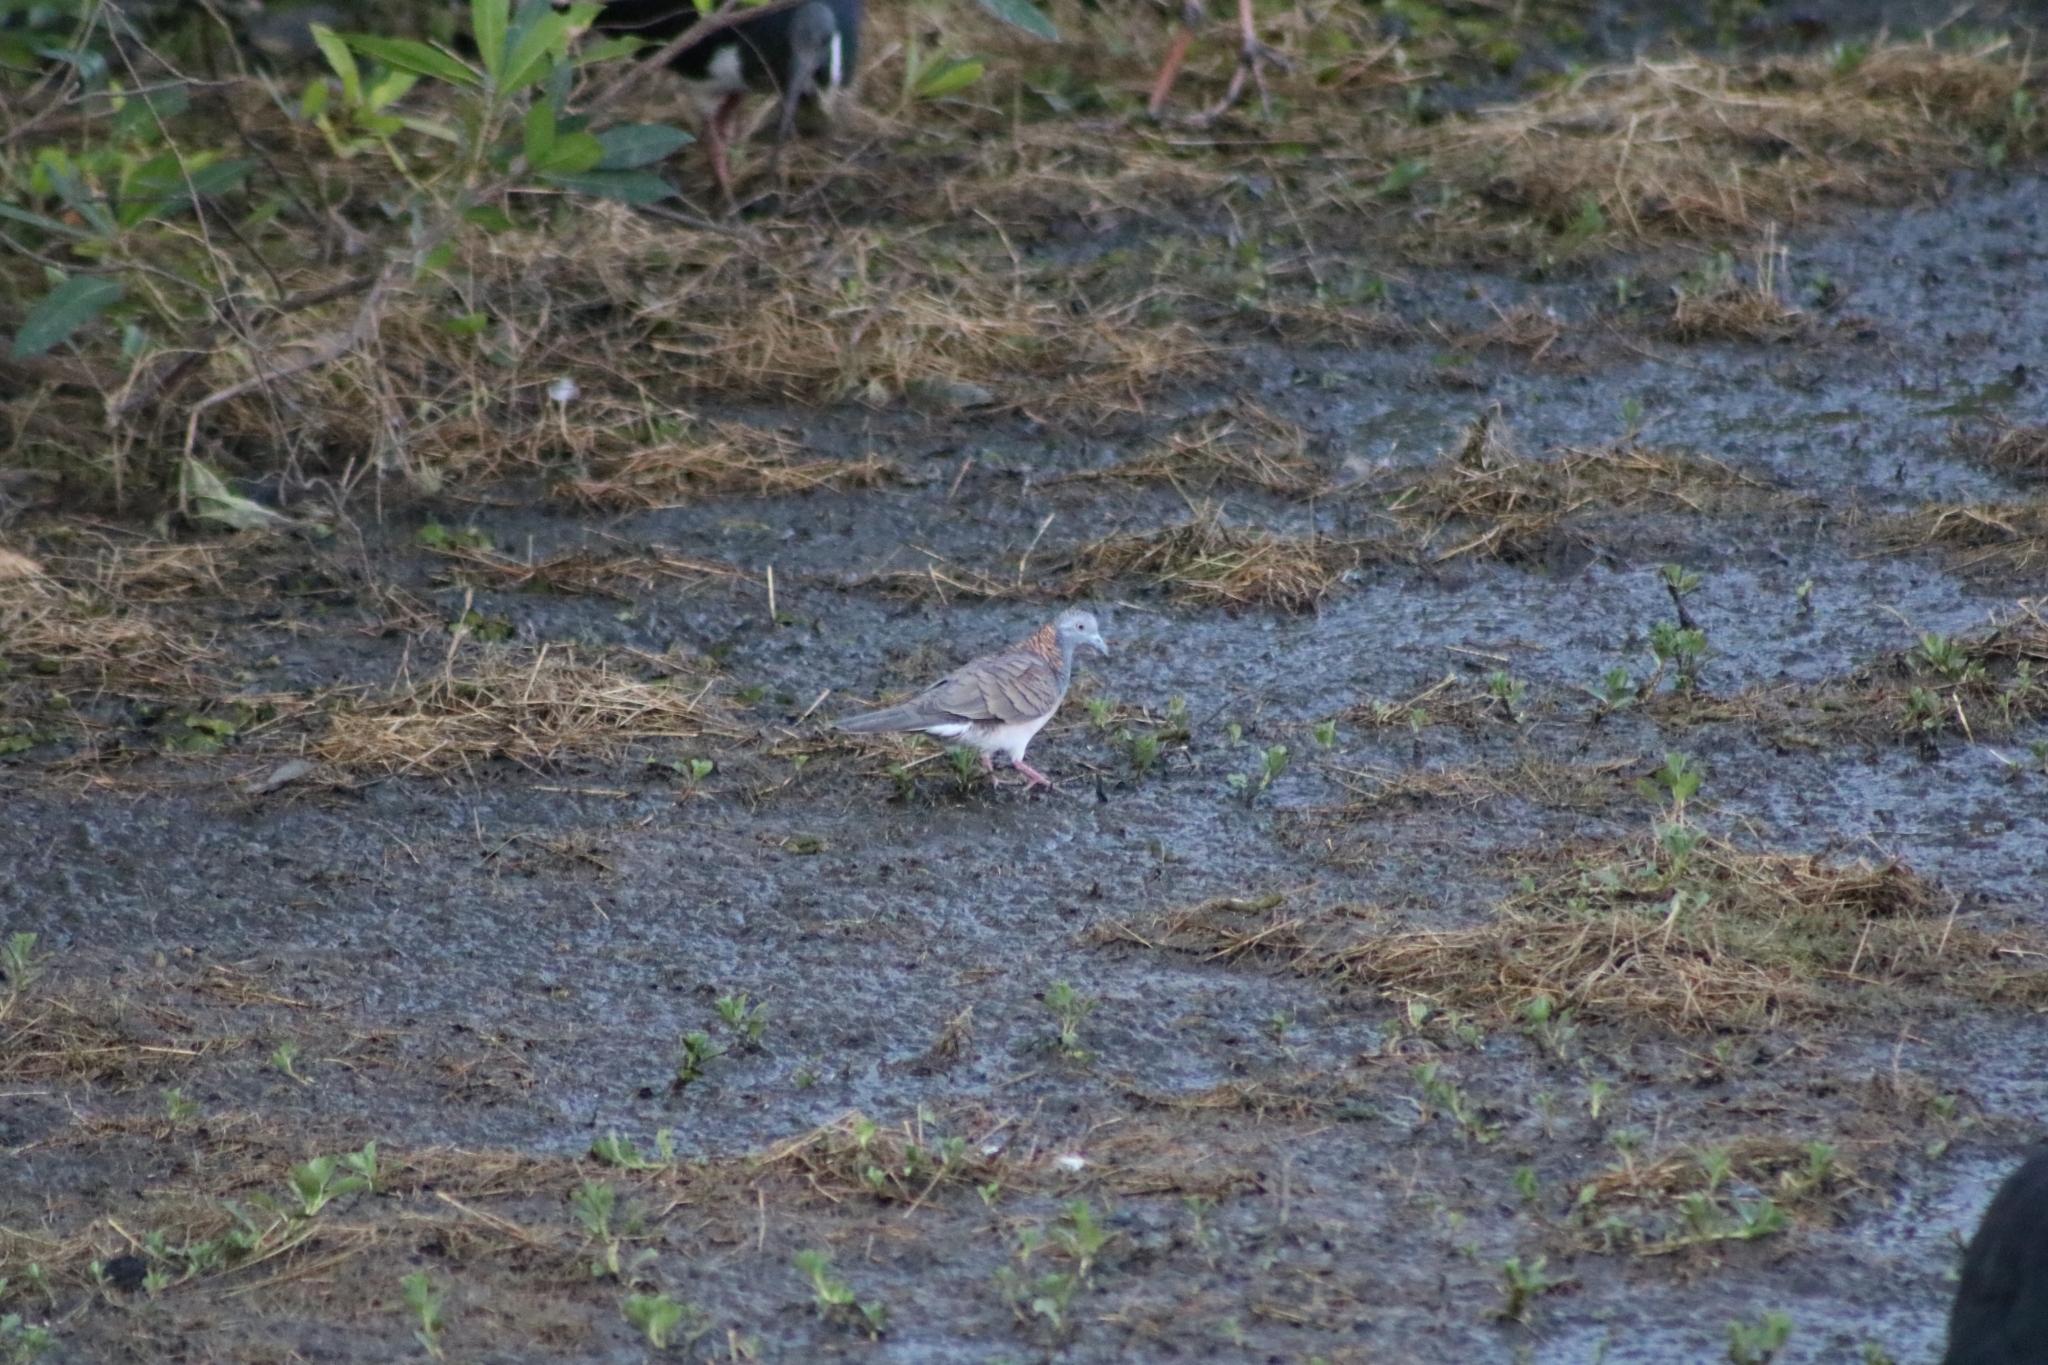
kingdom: Animalia
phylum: Chordata
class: Aves
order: Columbiformes
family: Columbidae
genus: Geopelia
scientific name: Geopelia humeralis
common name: Bar-shouldered dove
